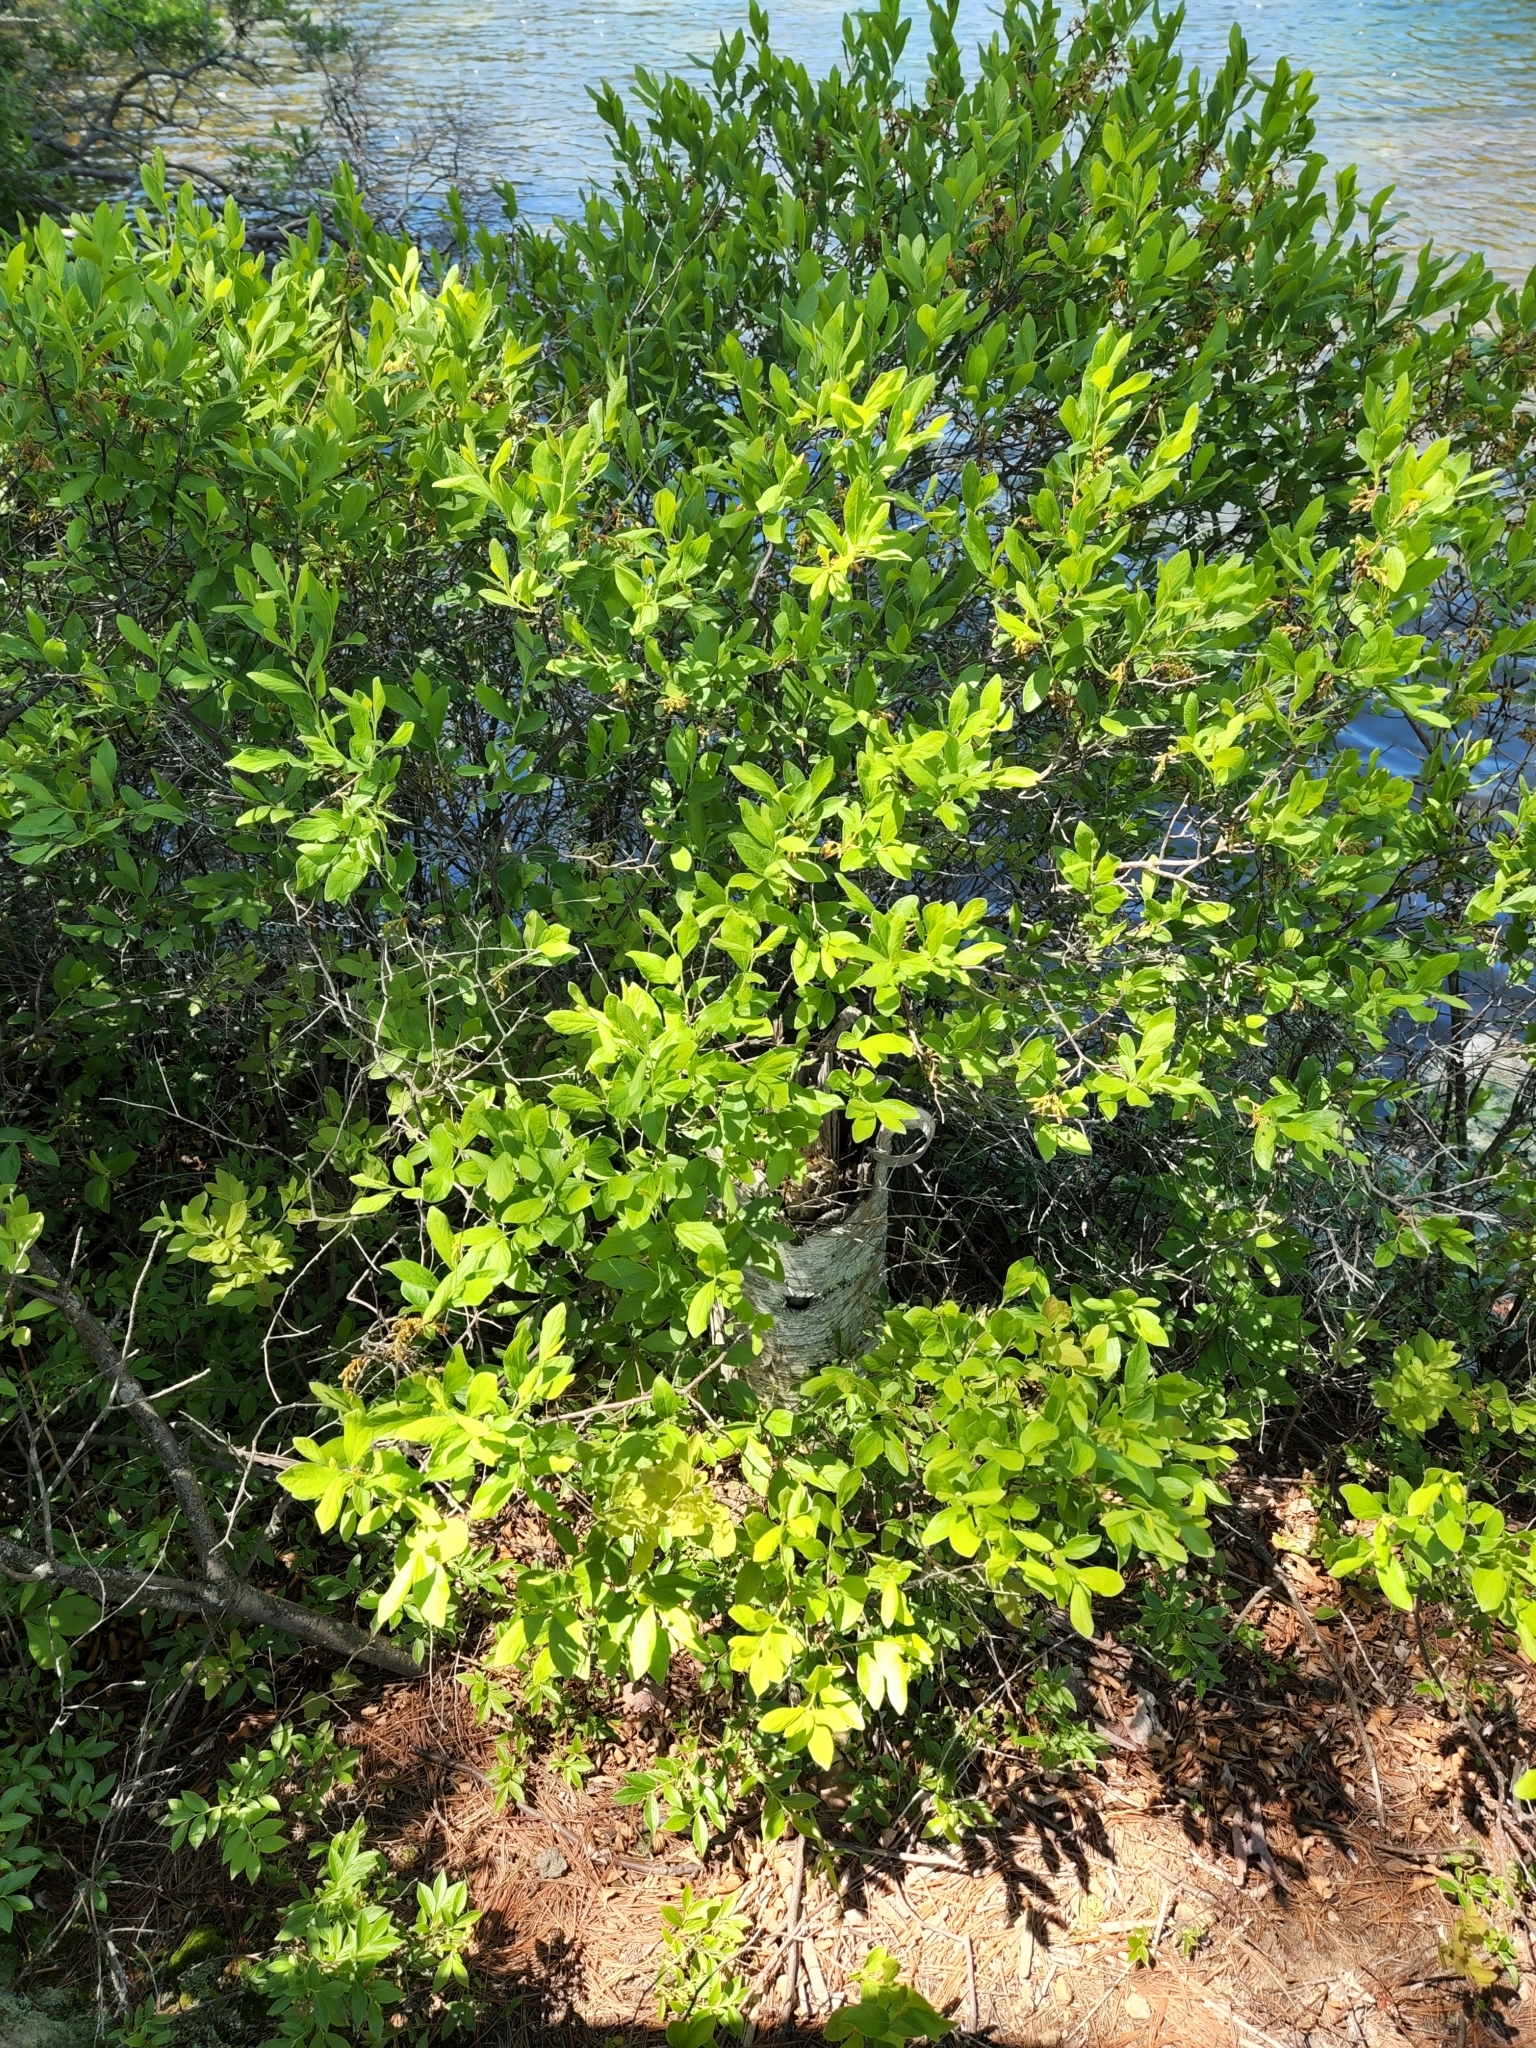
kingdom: Plantae
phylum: Tracheophyta
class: Magnoliopsida
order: Ericales
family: Ericaceae
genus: Gaylussacia
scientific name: Gaylussacia baccata
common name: Black huckleberry
